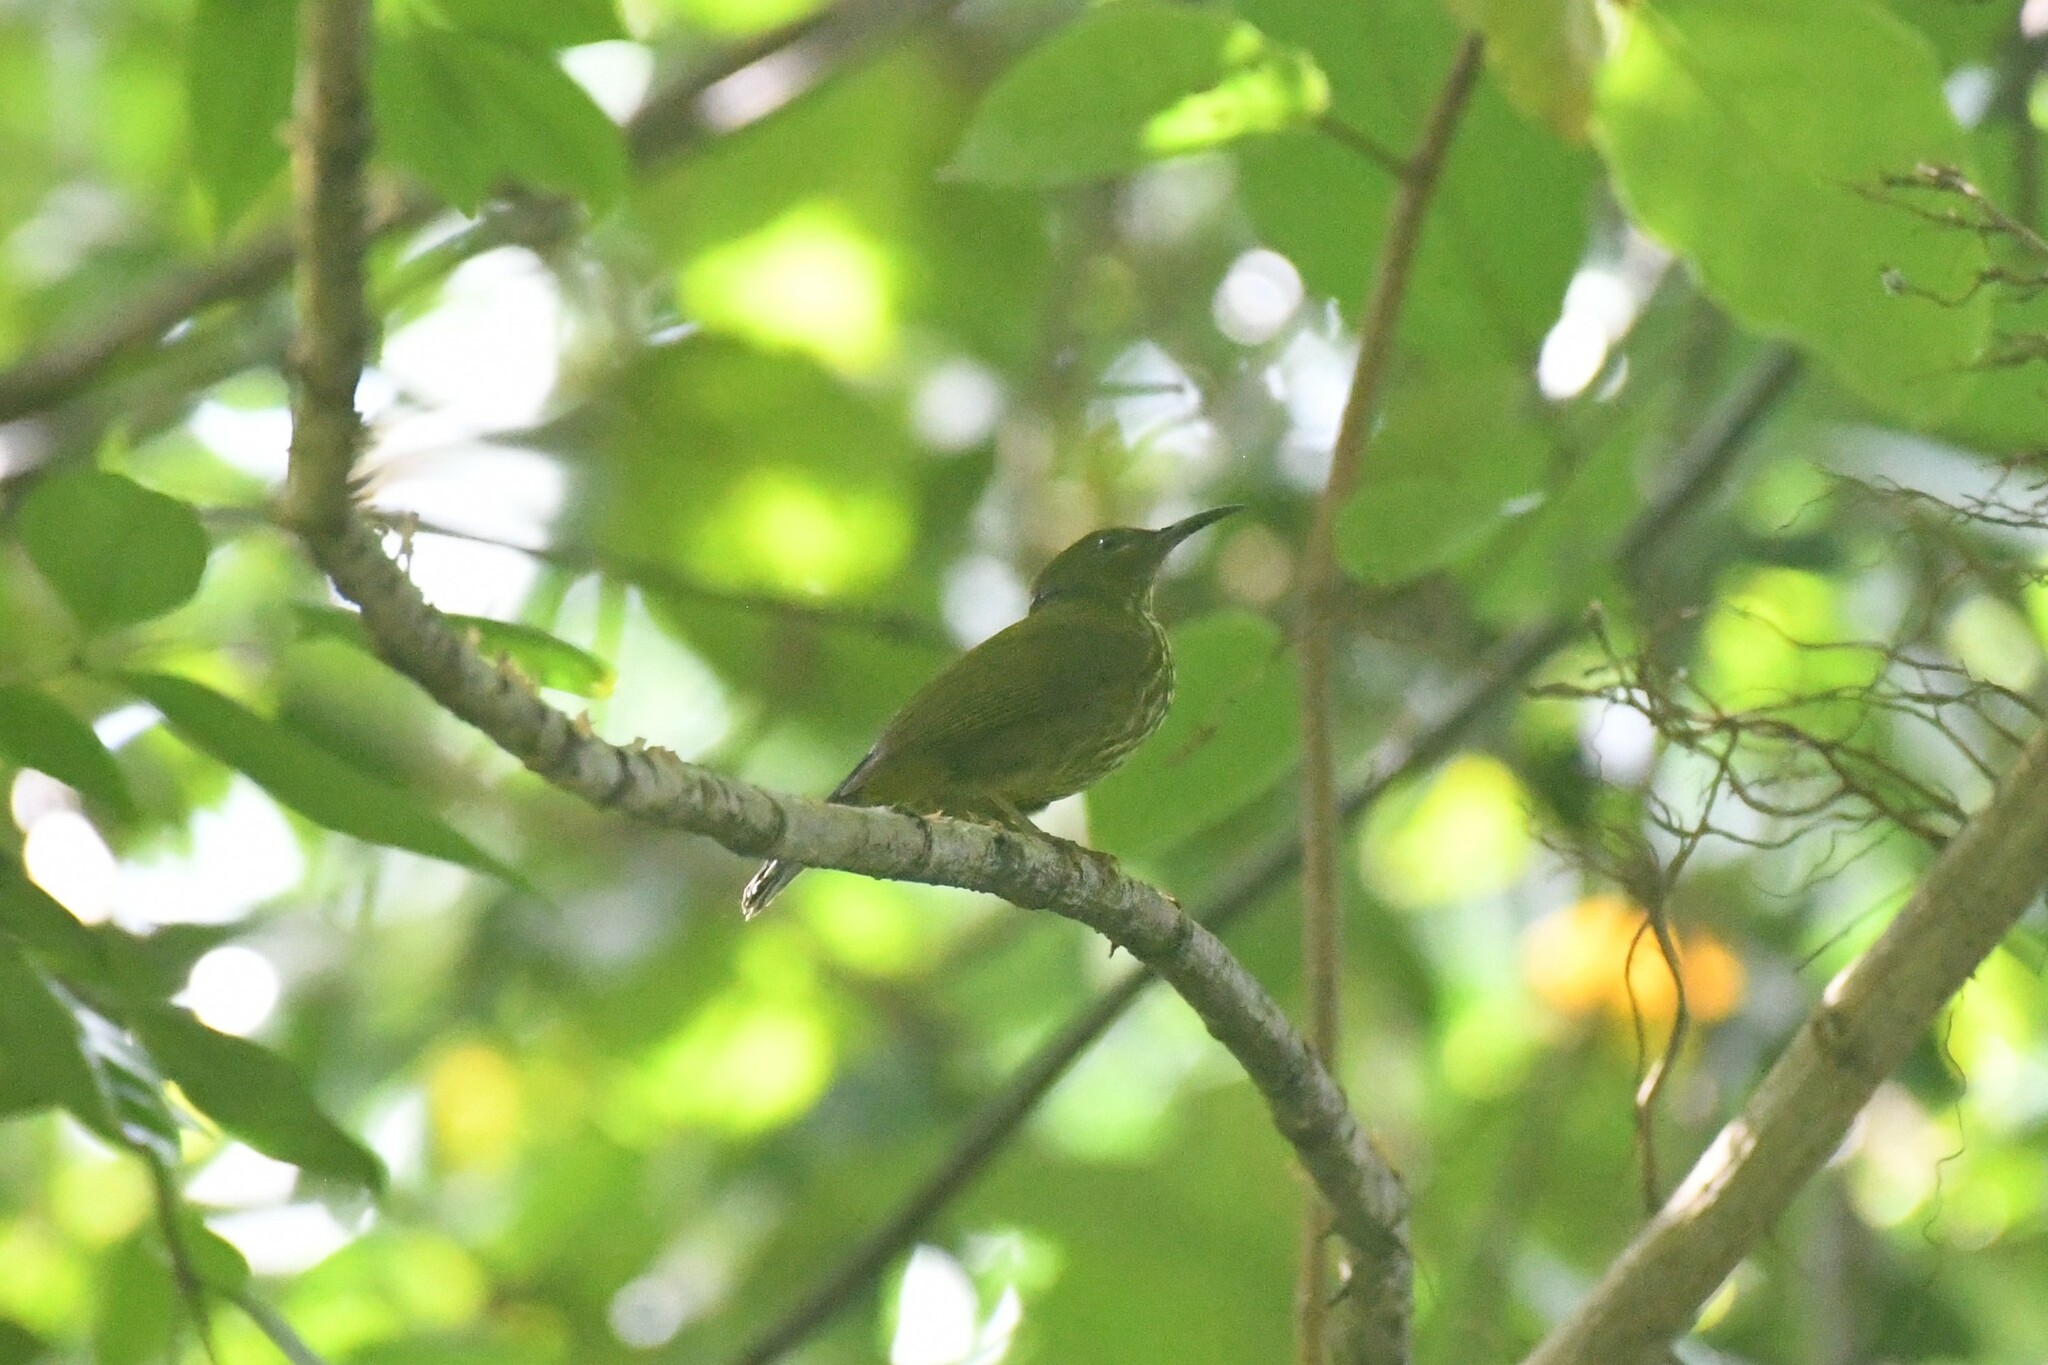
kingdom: Animalia
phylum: Chordata
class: Aves
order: Passeriformes
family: Nectariniidae
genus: Hypogramma
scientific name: Hypogramma hypogrammicum
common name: Purple-naped sunbird
